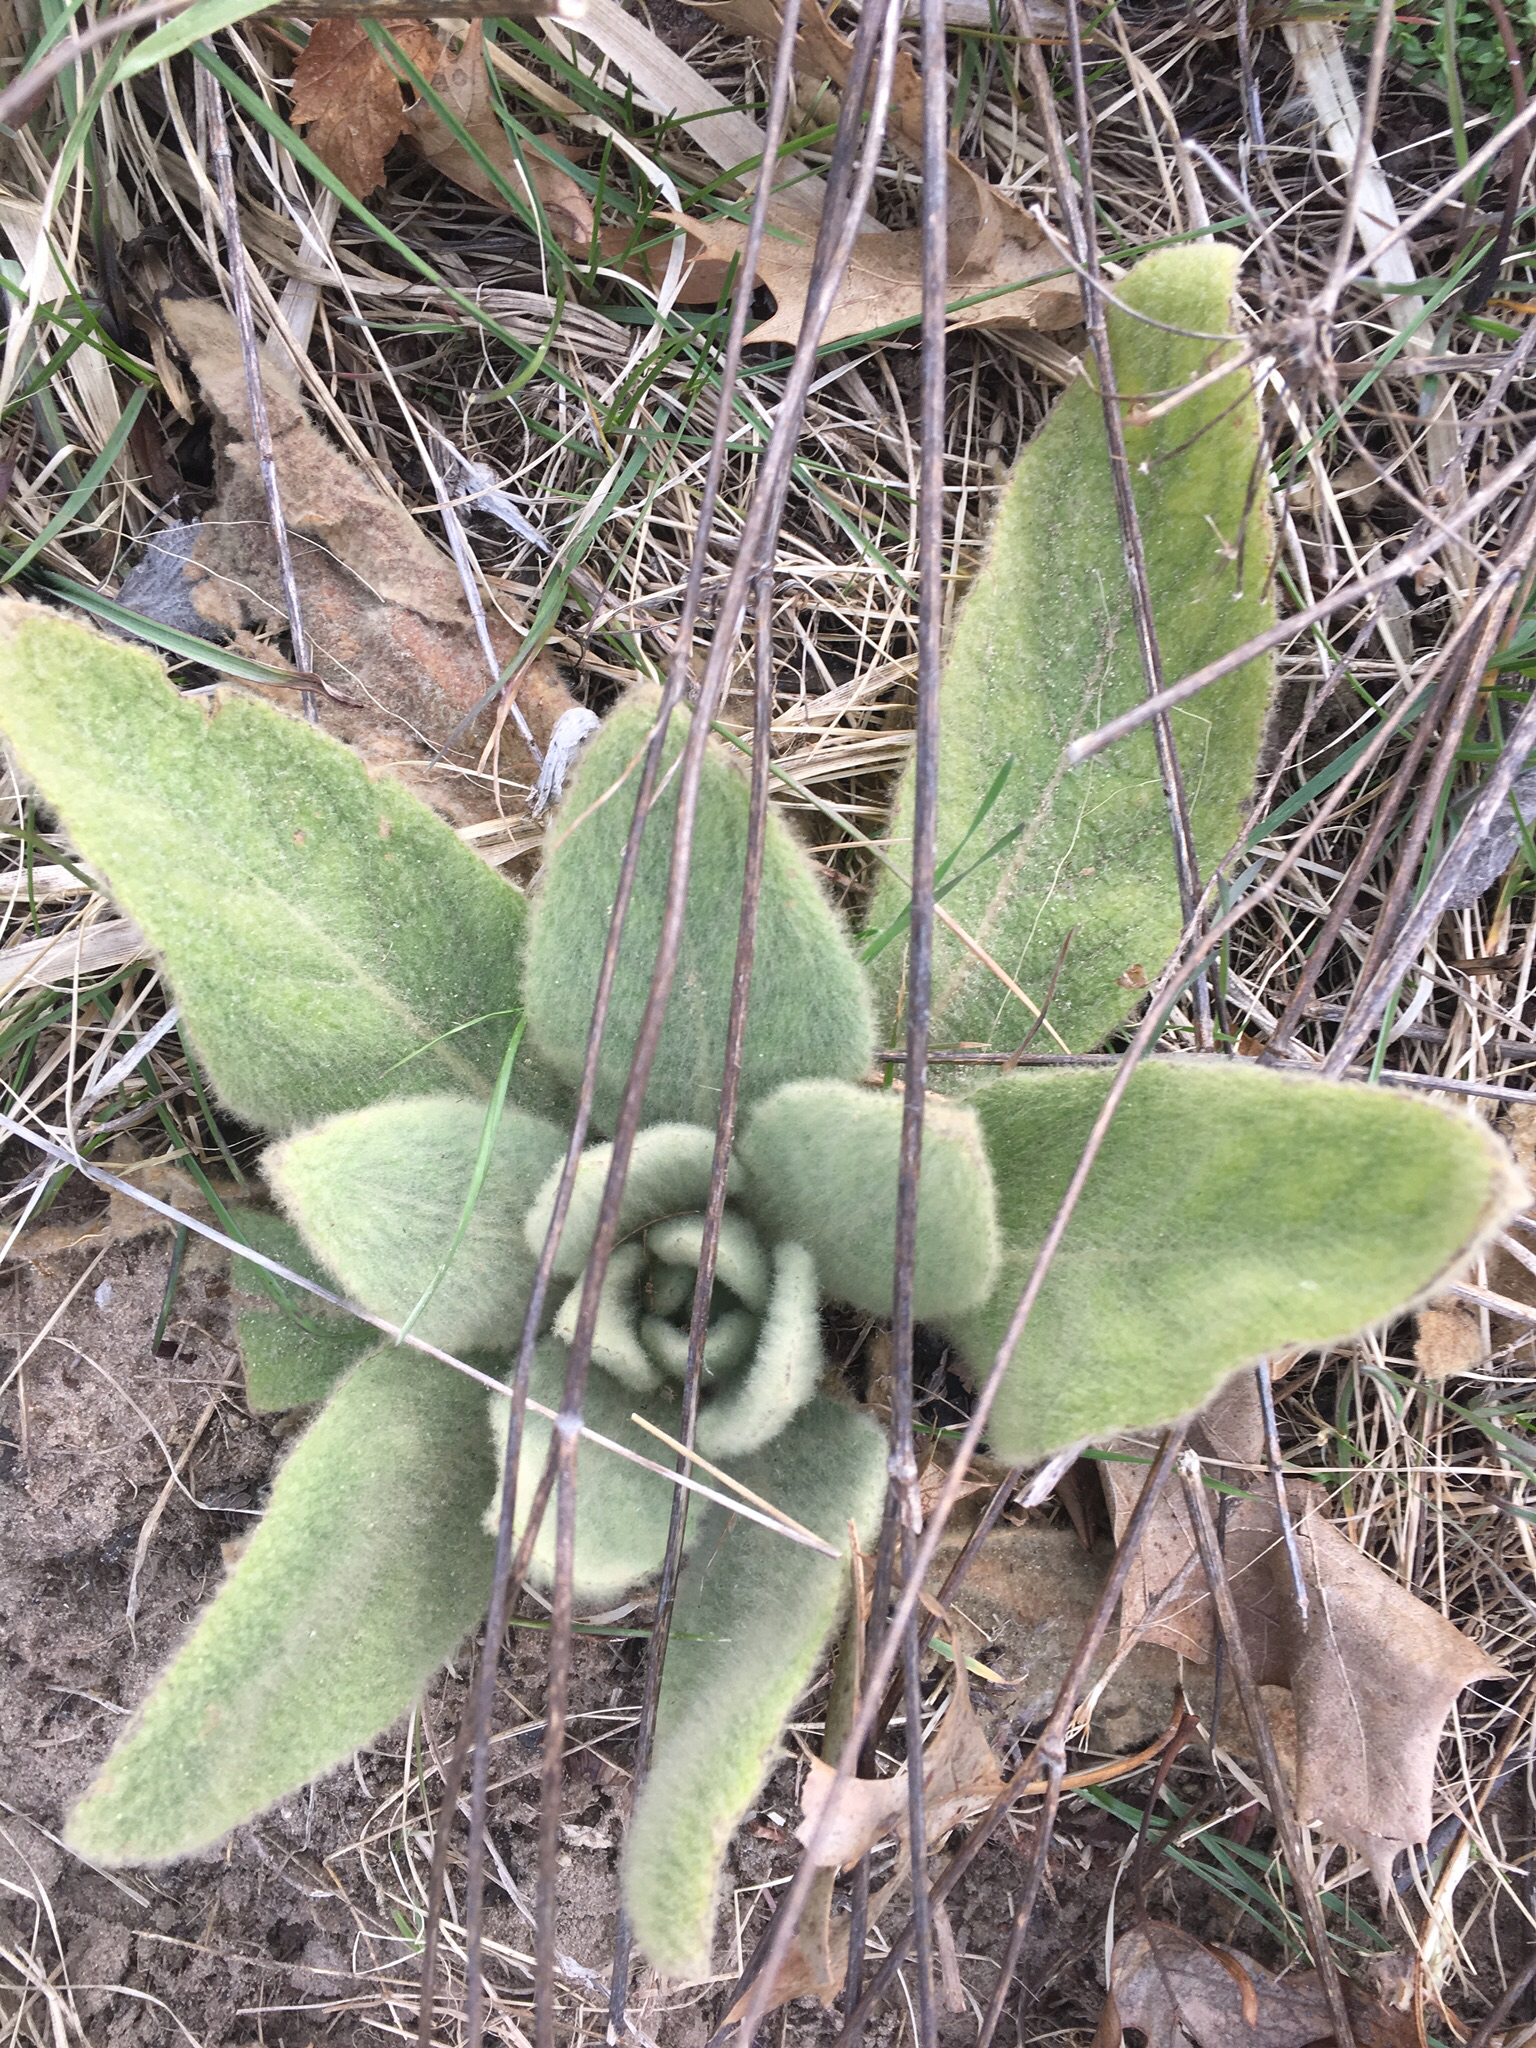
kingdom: Plantae
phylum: Tracheophyta
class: Magnoliopsida
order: Lamiales
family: Scrophulariaceae
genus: Verbascum
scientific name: Verbascum thapsus
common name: Common mullein
